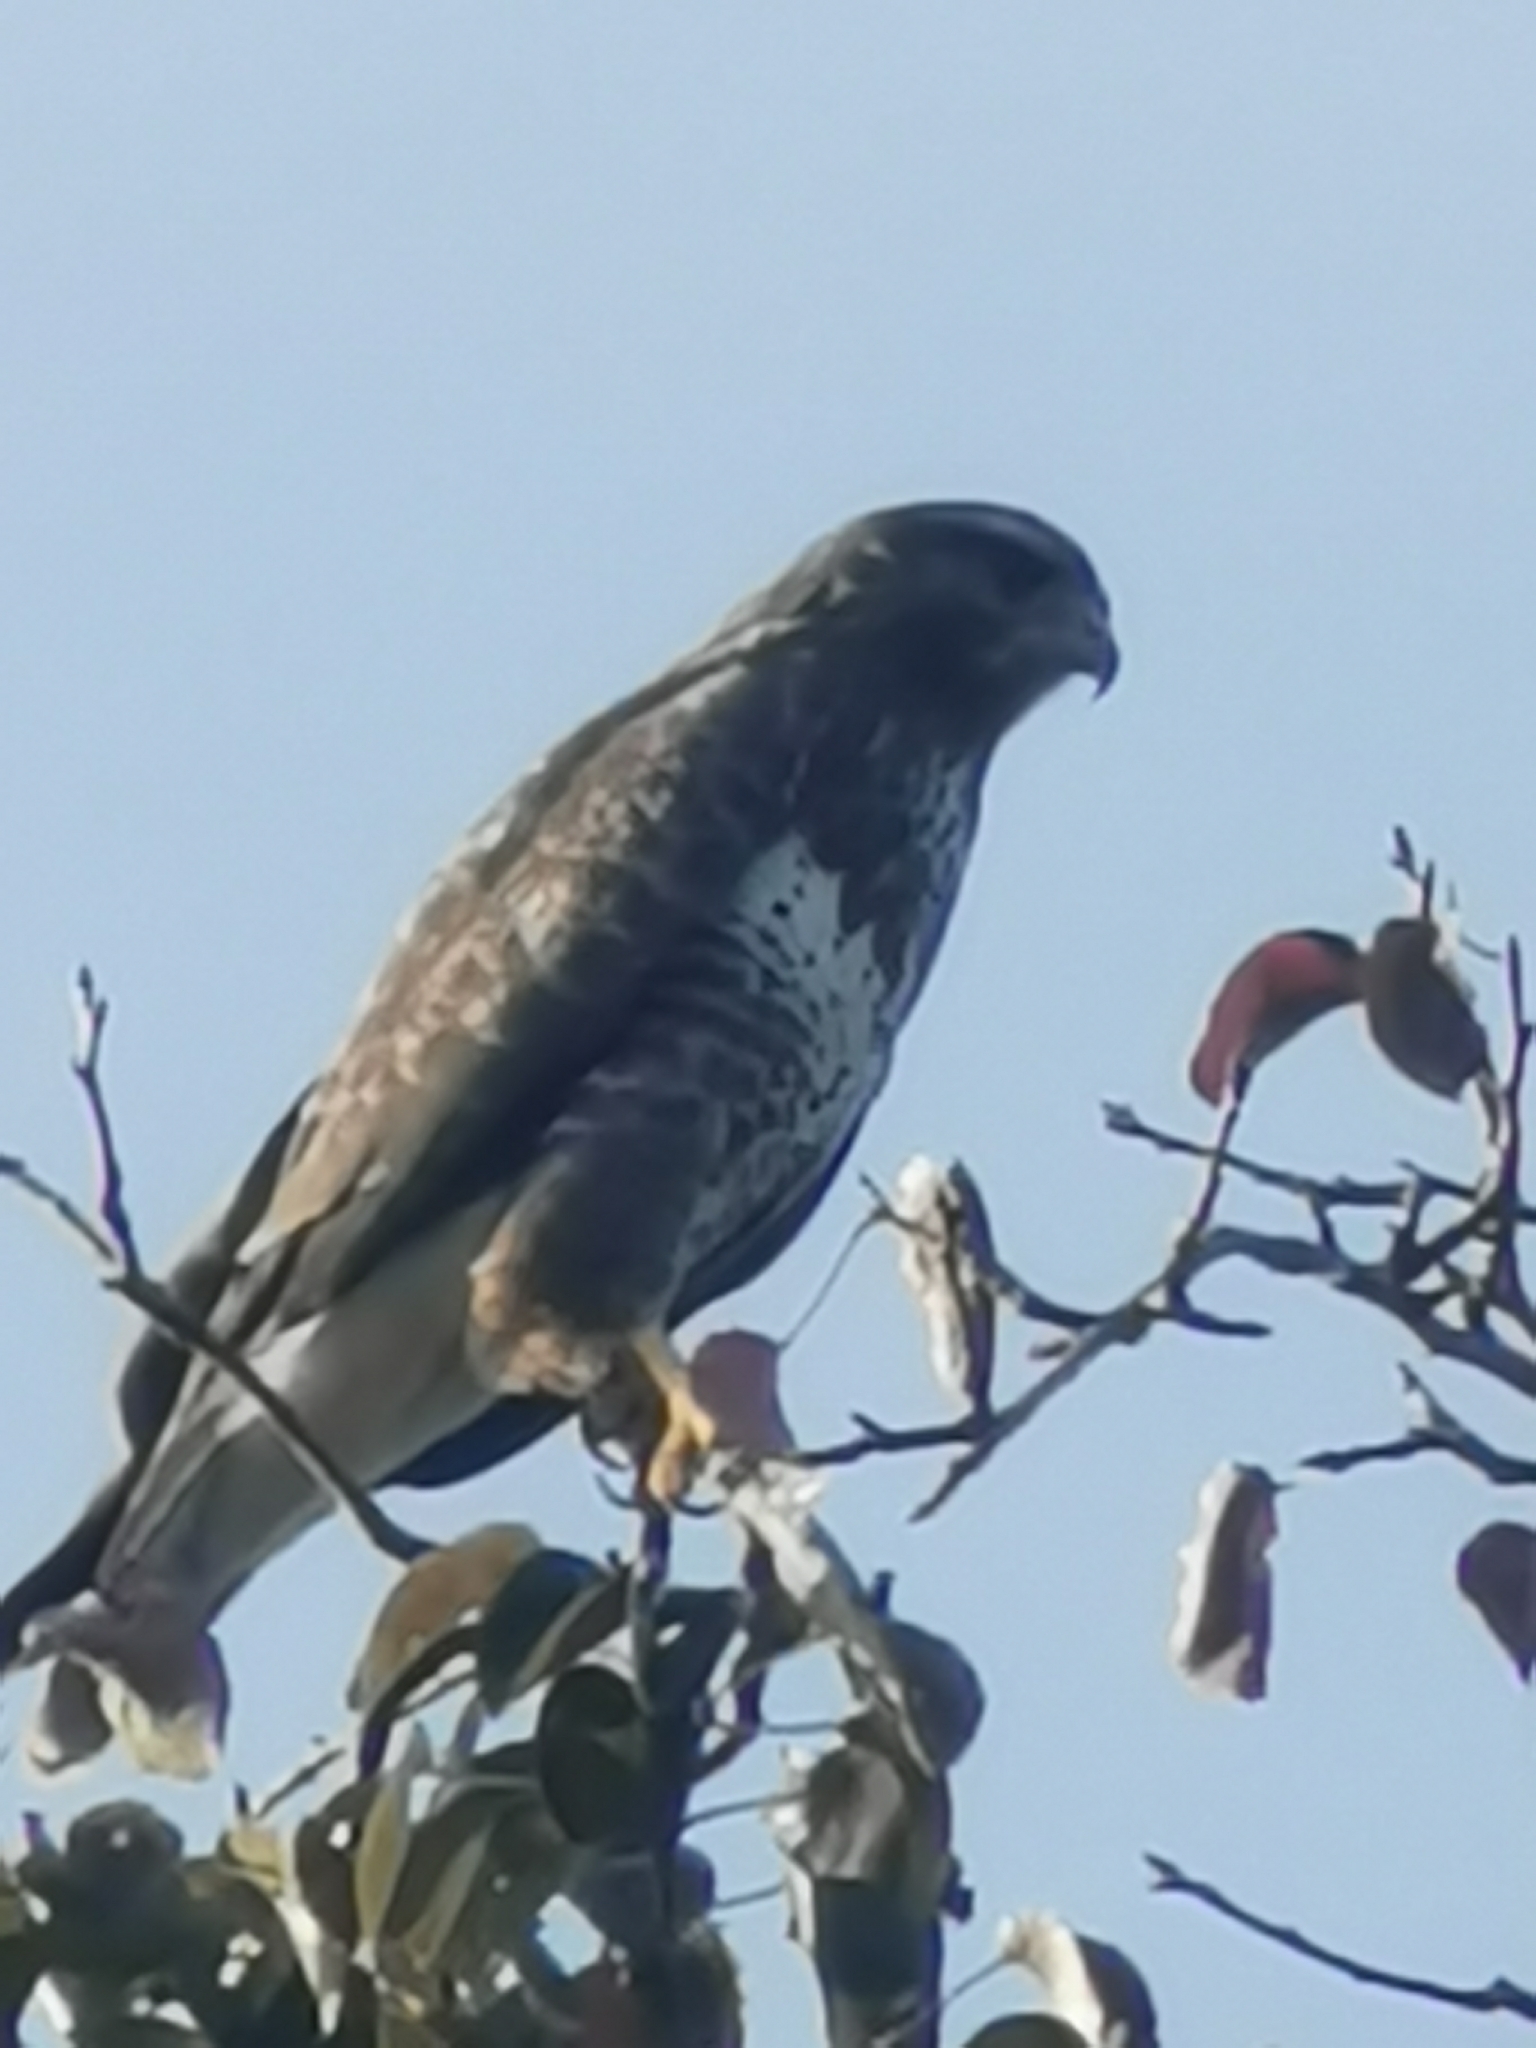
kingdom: Animalia
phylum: Chordata
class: Aves
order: Accipitriformes
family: Accipitridae
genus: Buteo
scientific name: Buteo buteo
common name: Common buzzard
